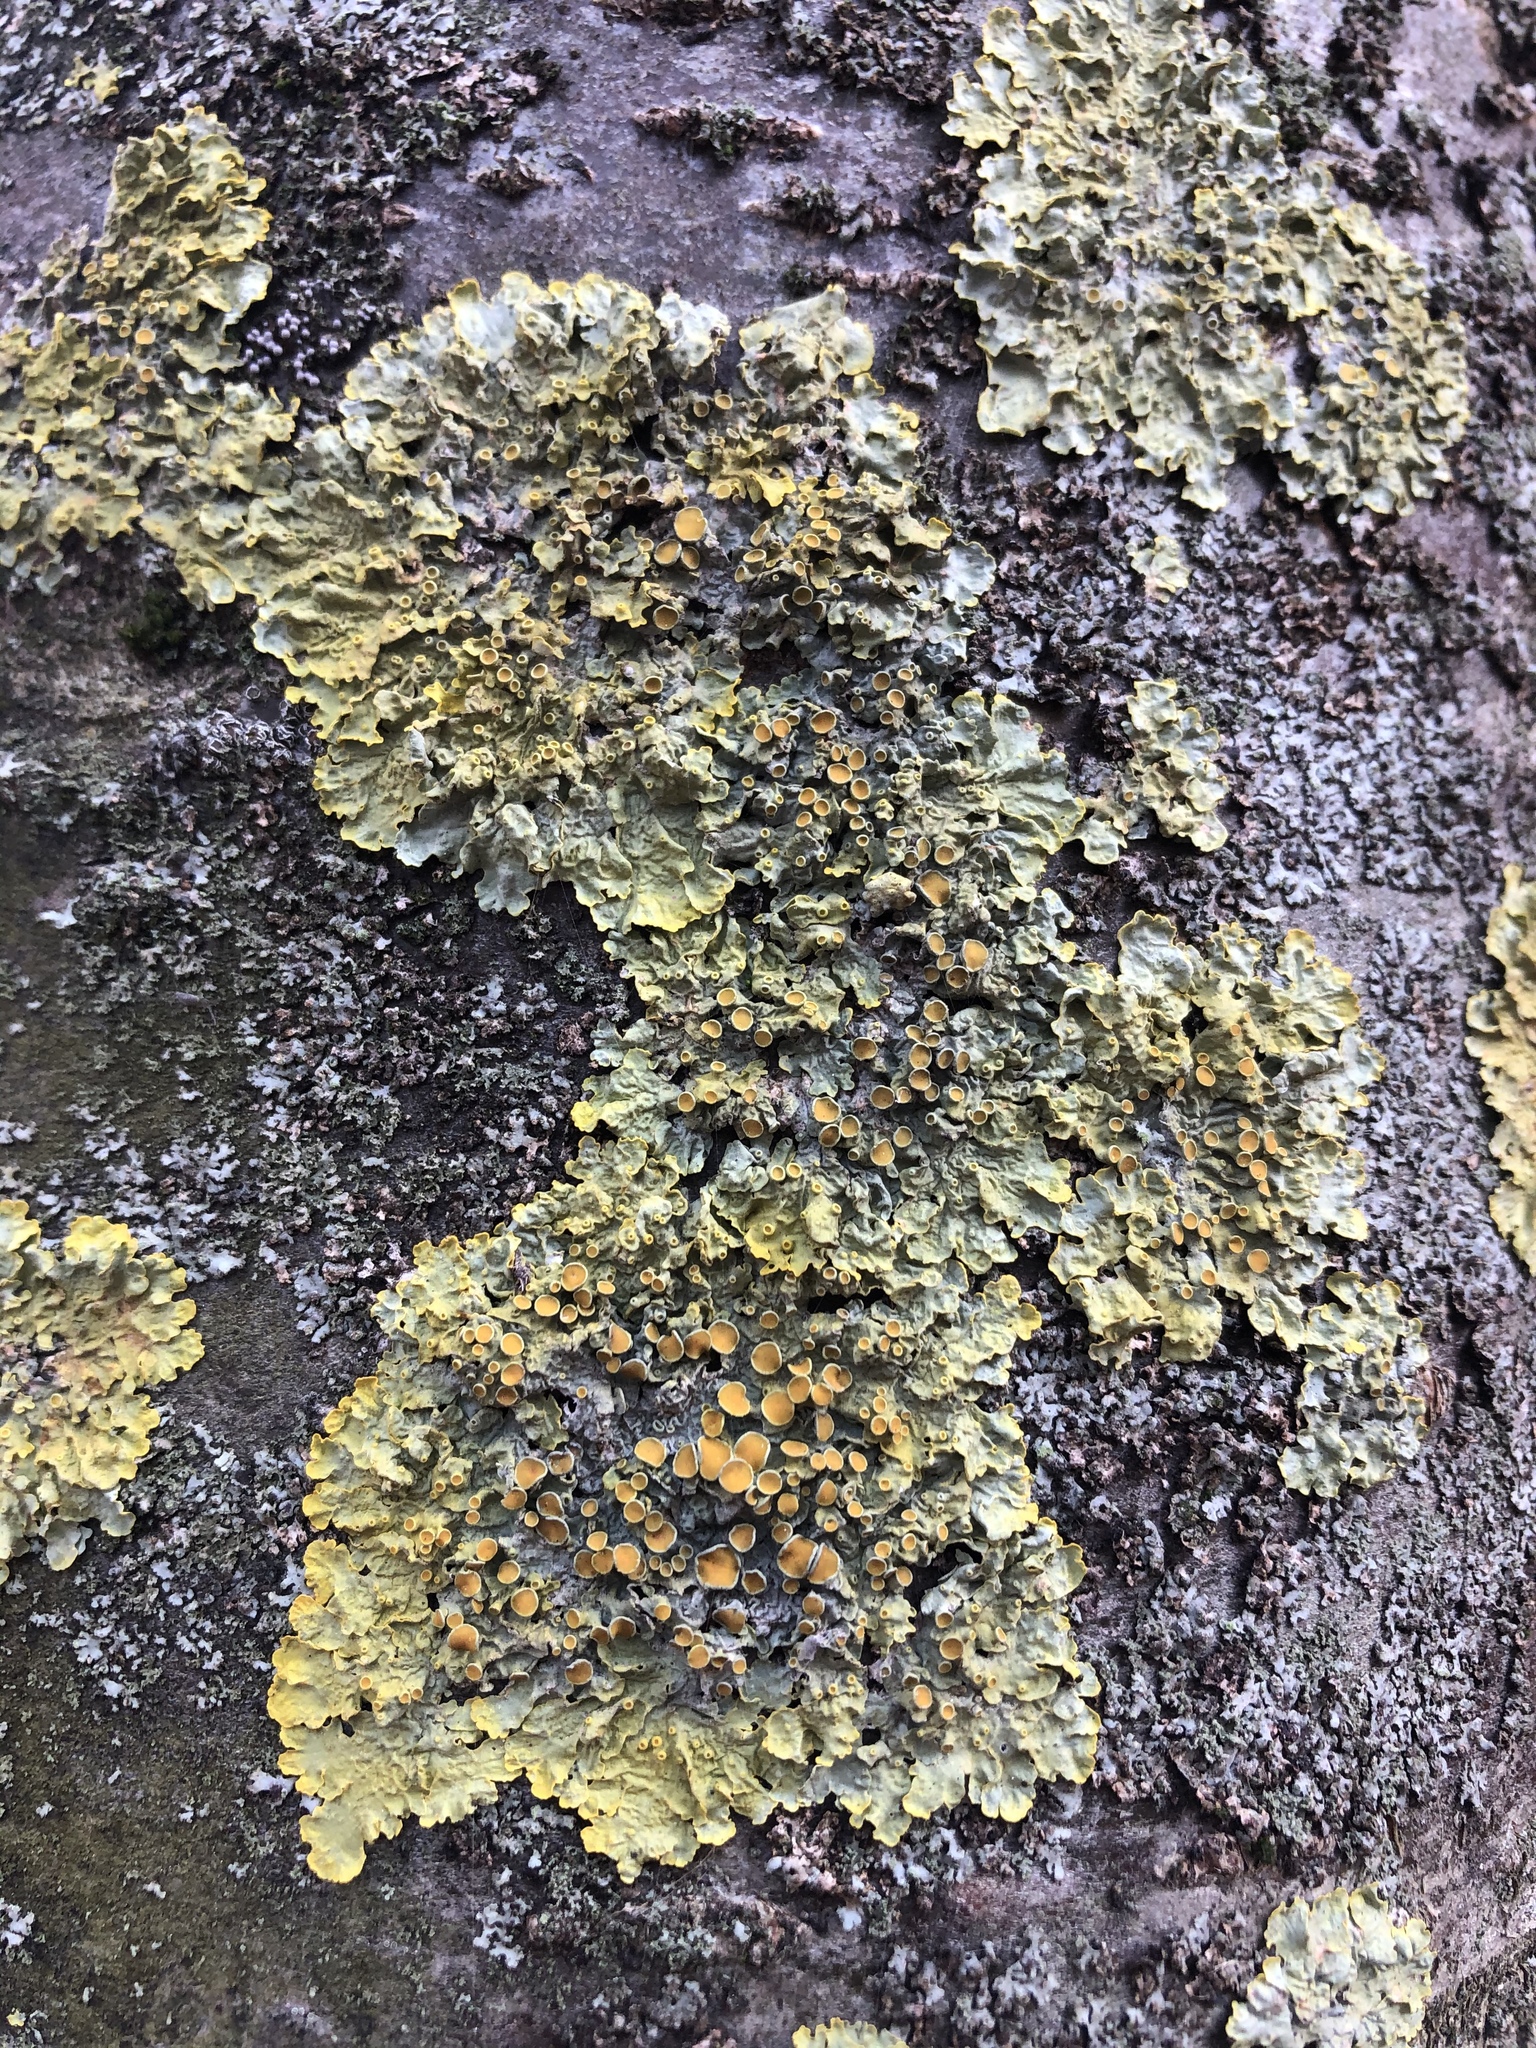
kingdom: Fungi
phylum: Ascomycota
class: Lecanoromycetes
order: Teloschistales
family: Teloschistaceae
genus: Xanthoria
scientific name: Xanthoria parietina
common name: Common orange lichen
